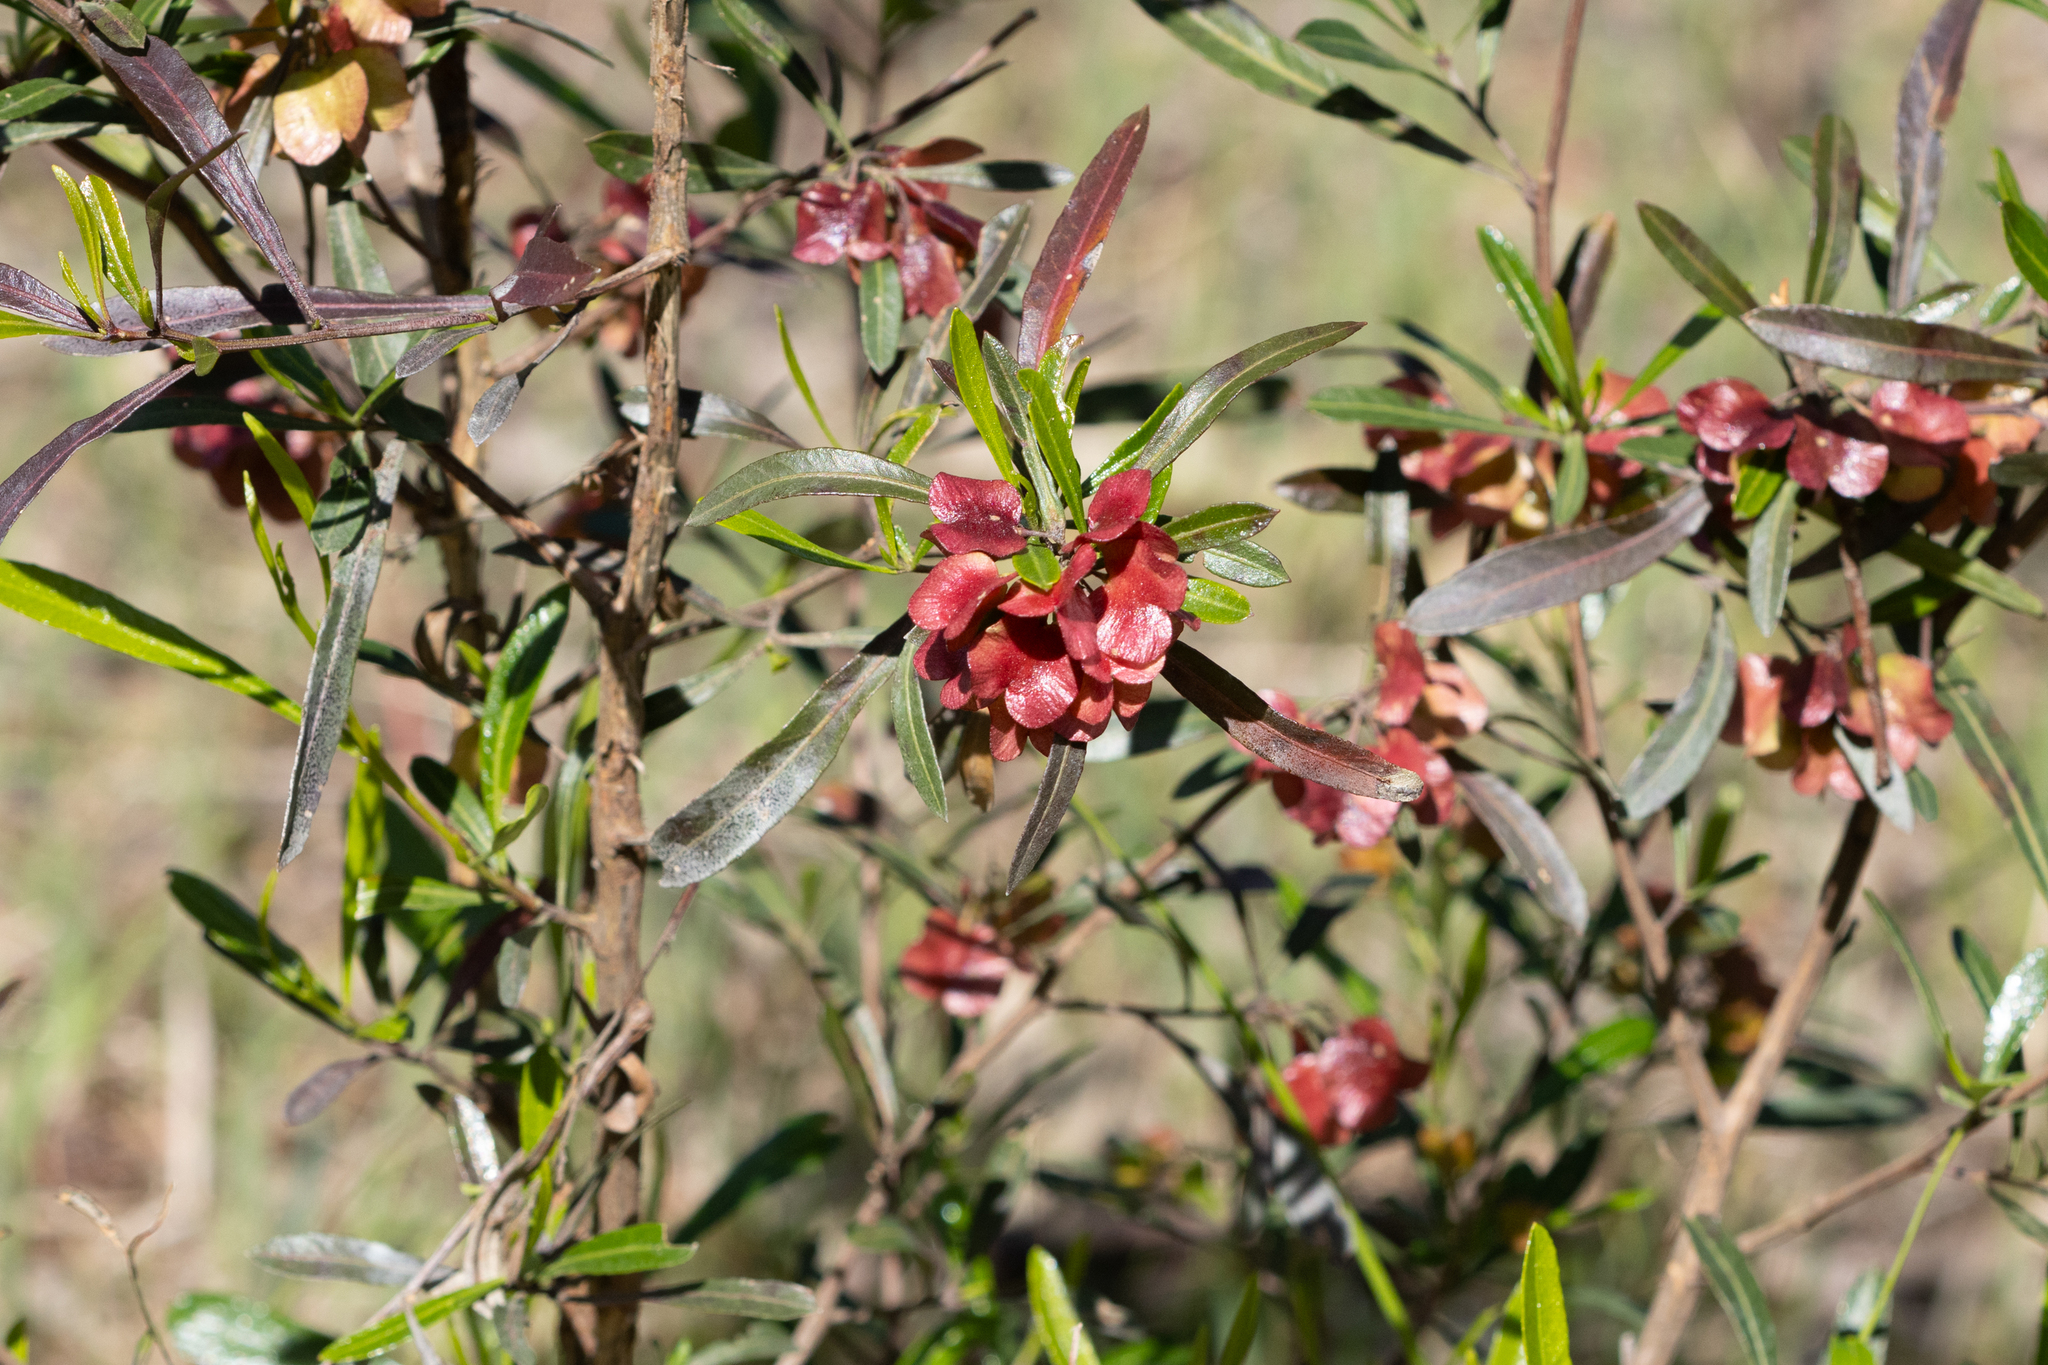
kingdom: Plantae
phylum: Tracheophyta
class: Magnoliopsida
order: Sapindales
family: Sapindaceae
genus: Dodonaea
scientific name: Dodonaea viscosa
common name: Hopbush
